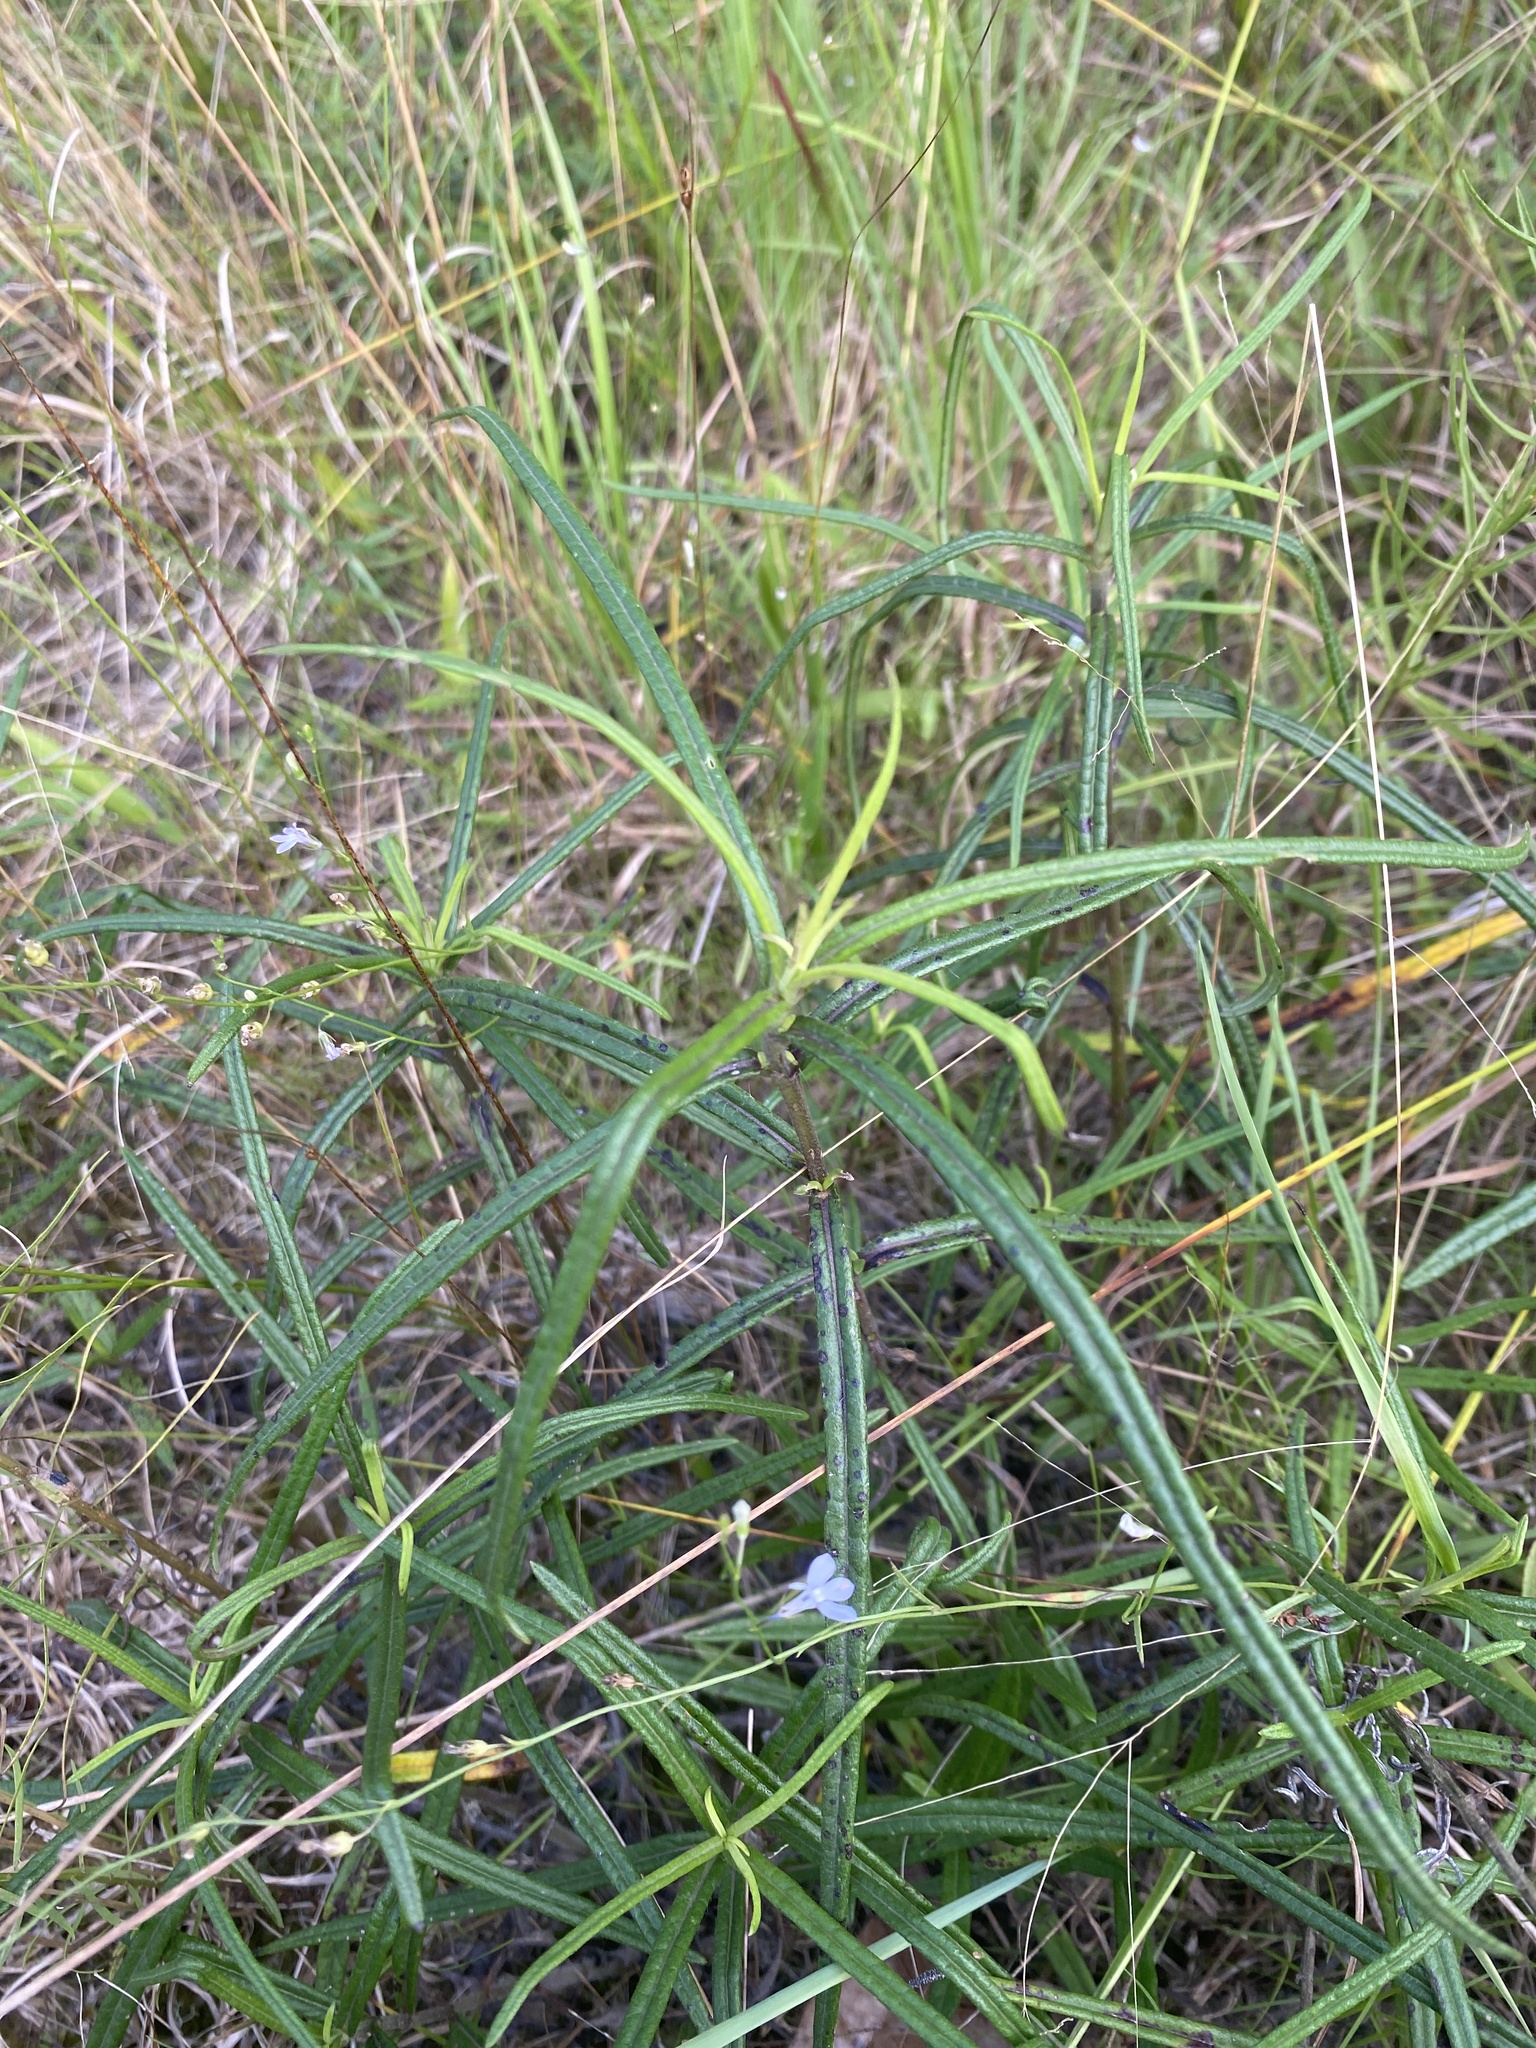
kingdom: Plantae
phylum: Tracheophyta
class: Magnoliopsida
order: Asterales
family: Asteraceae
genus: Helianthus
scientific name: Helianthus angustifolius
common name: Swamp sunflower
